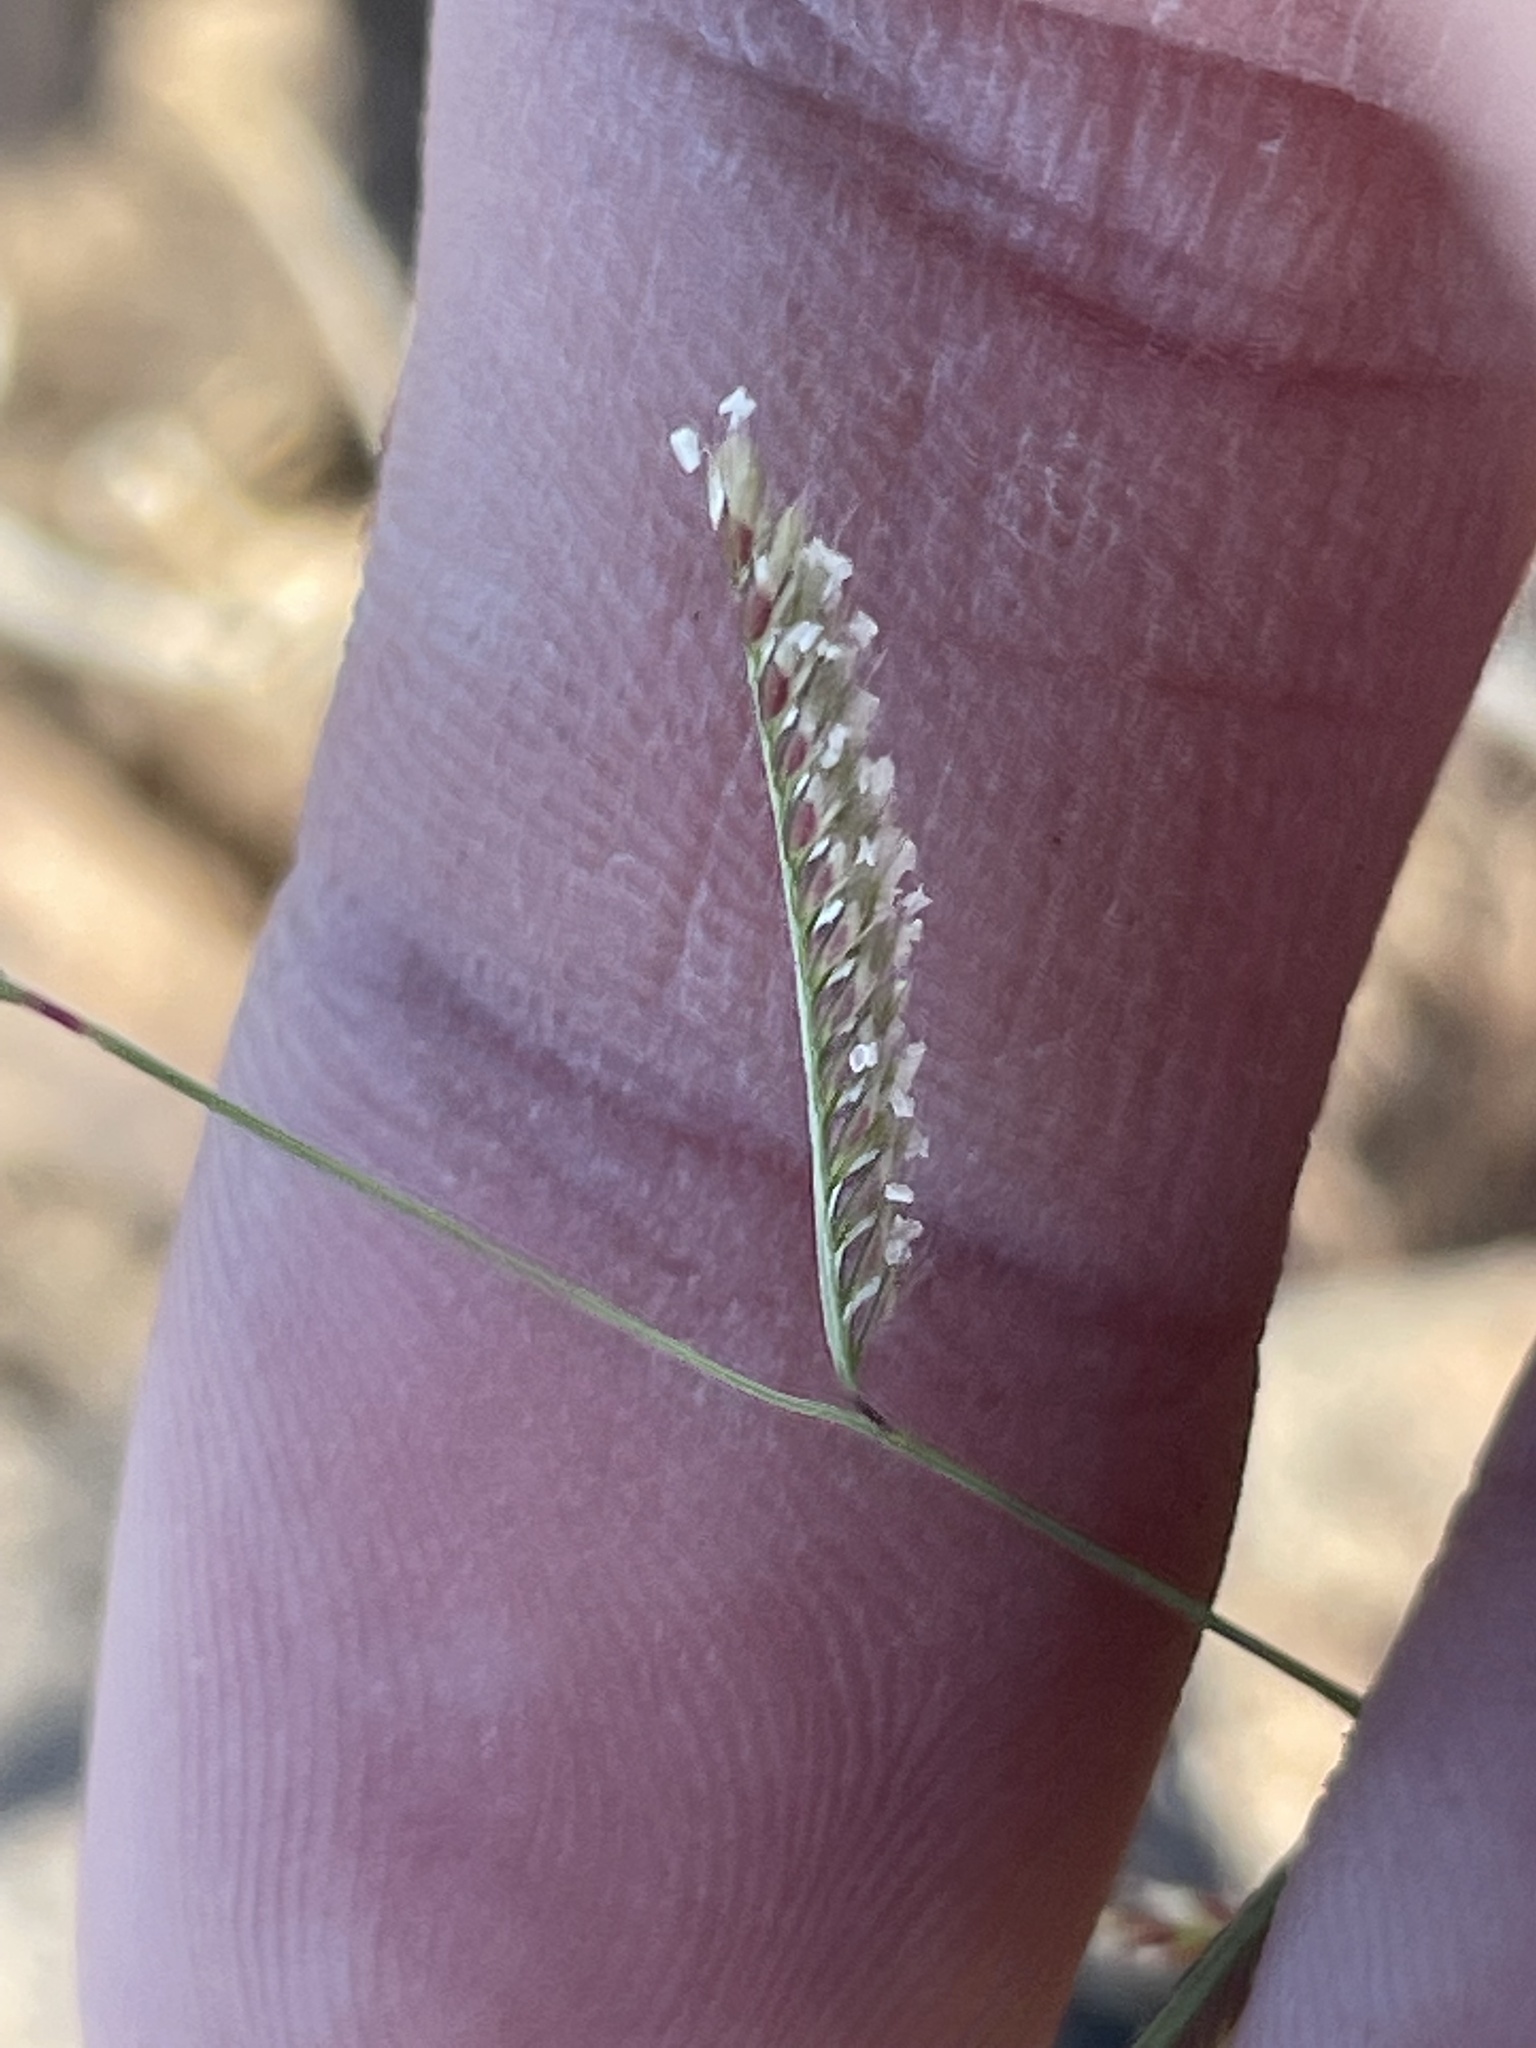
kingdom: Plantae
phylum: Tracheophyta
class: Liliopsida
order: Poales
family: Poaceae
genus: Bouteloua
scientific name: Bouteloua barbata
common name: Six-weeks grama
